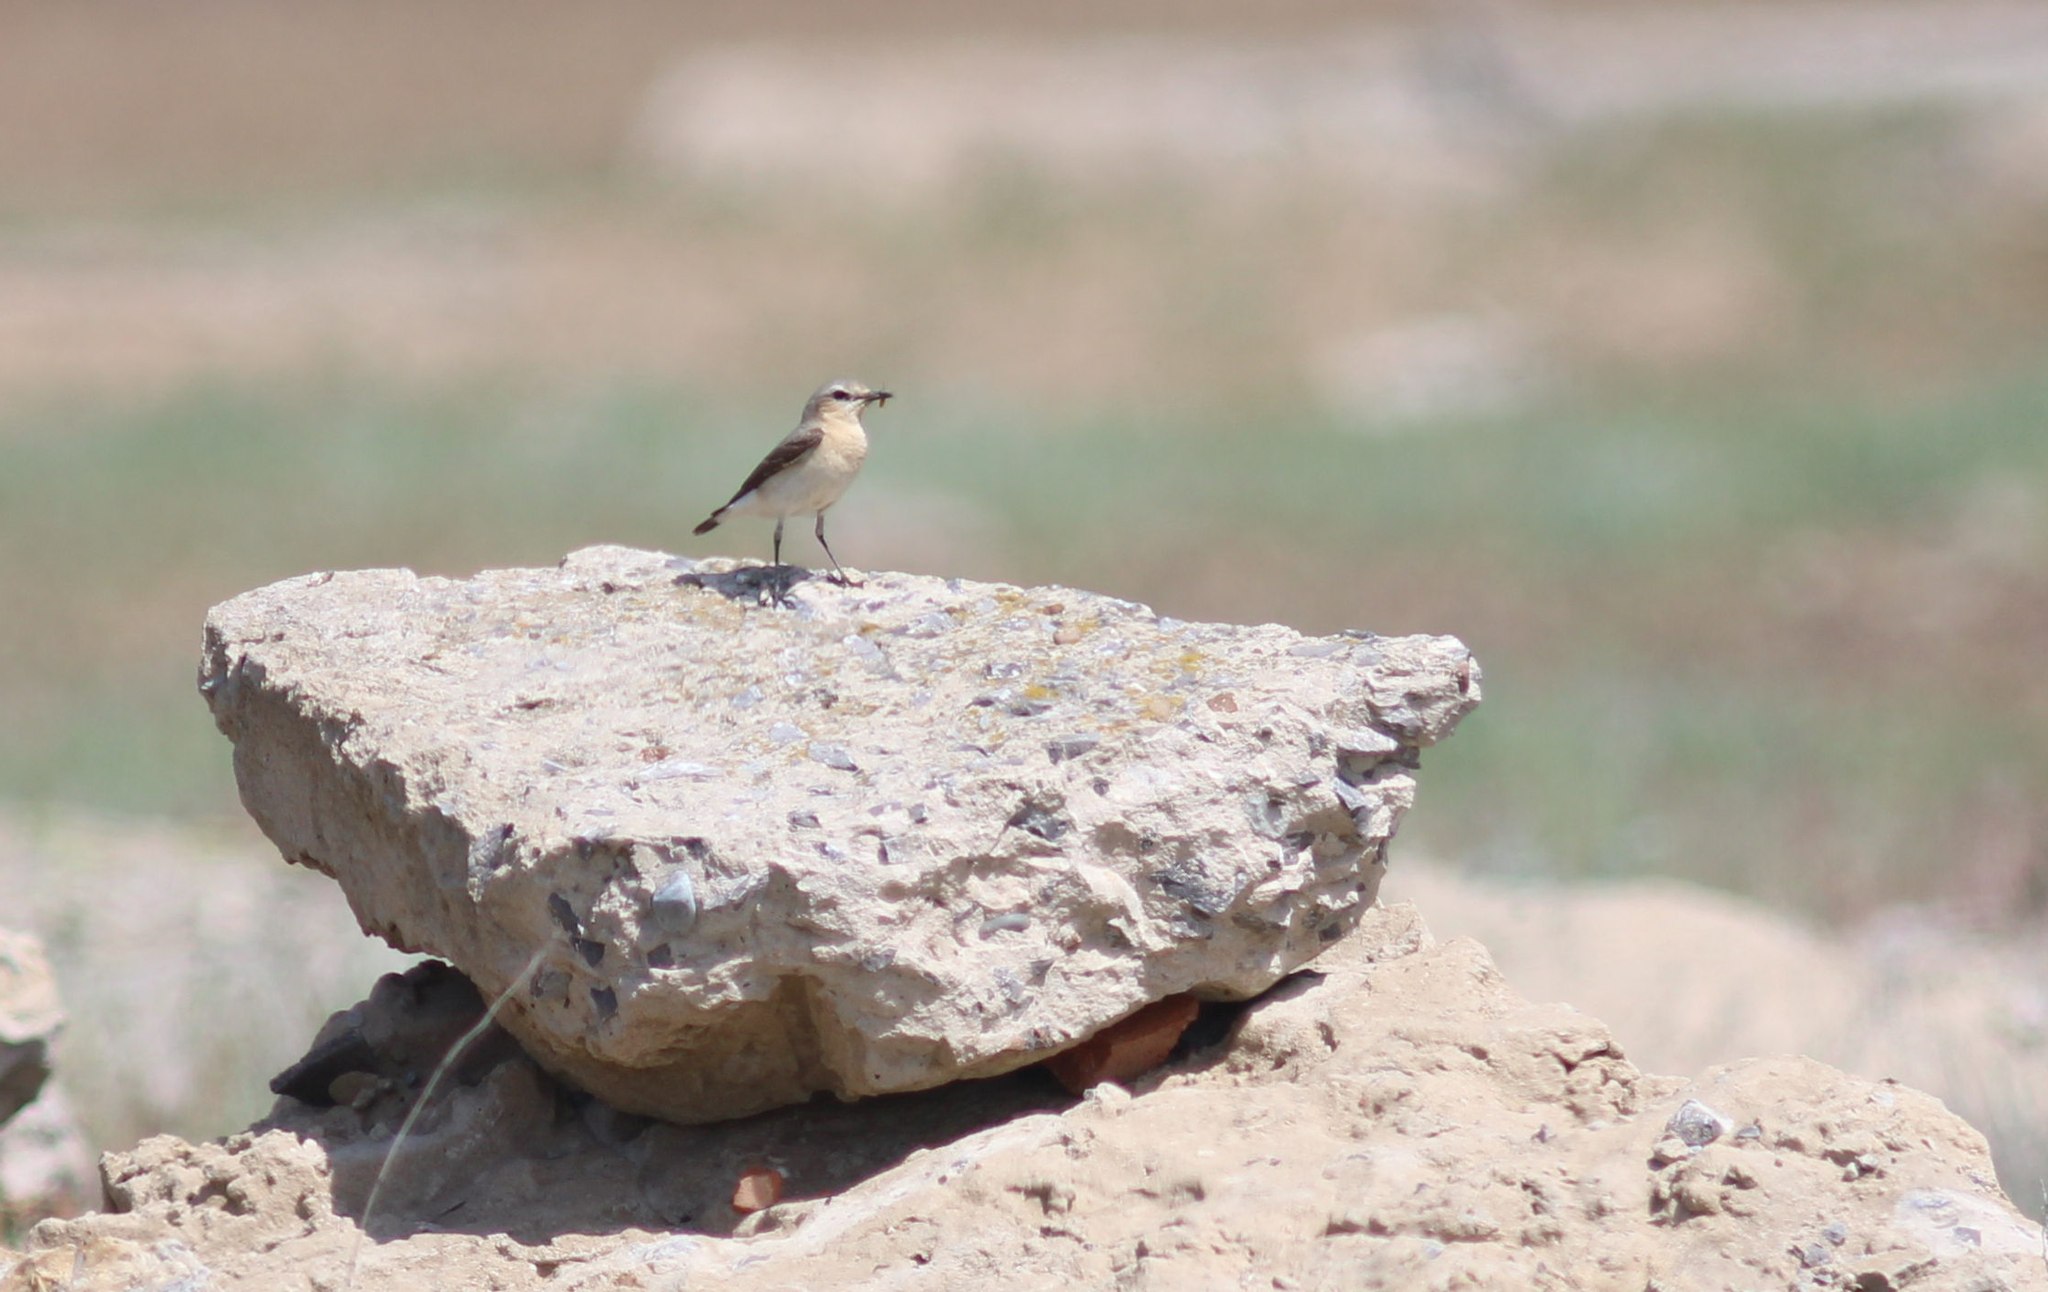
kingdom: Animalia
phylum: Chordata
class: Aves
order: Passeriformes
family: Muscicapidae
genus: Oenanthe
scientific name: Oenanthe oenanthe
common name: Northern wheatear
